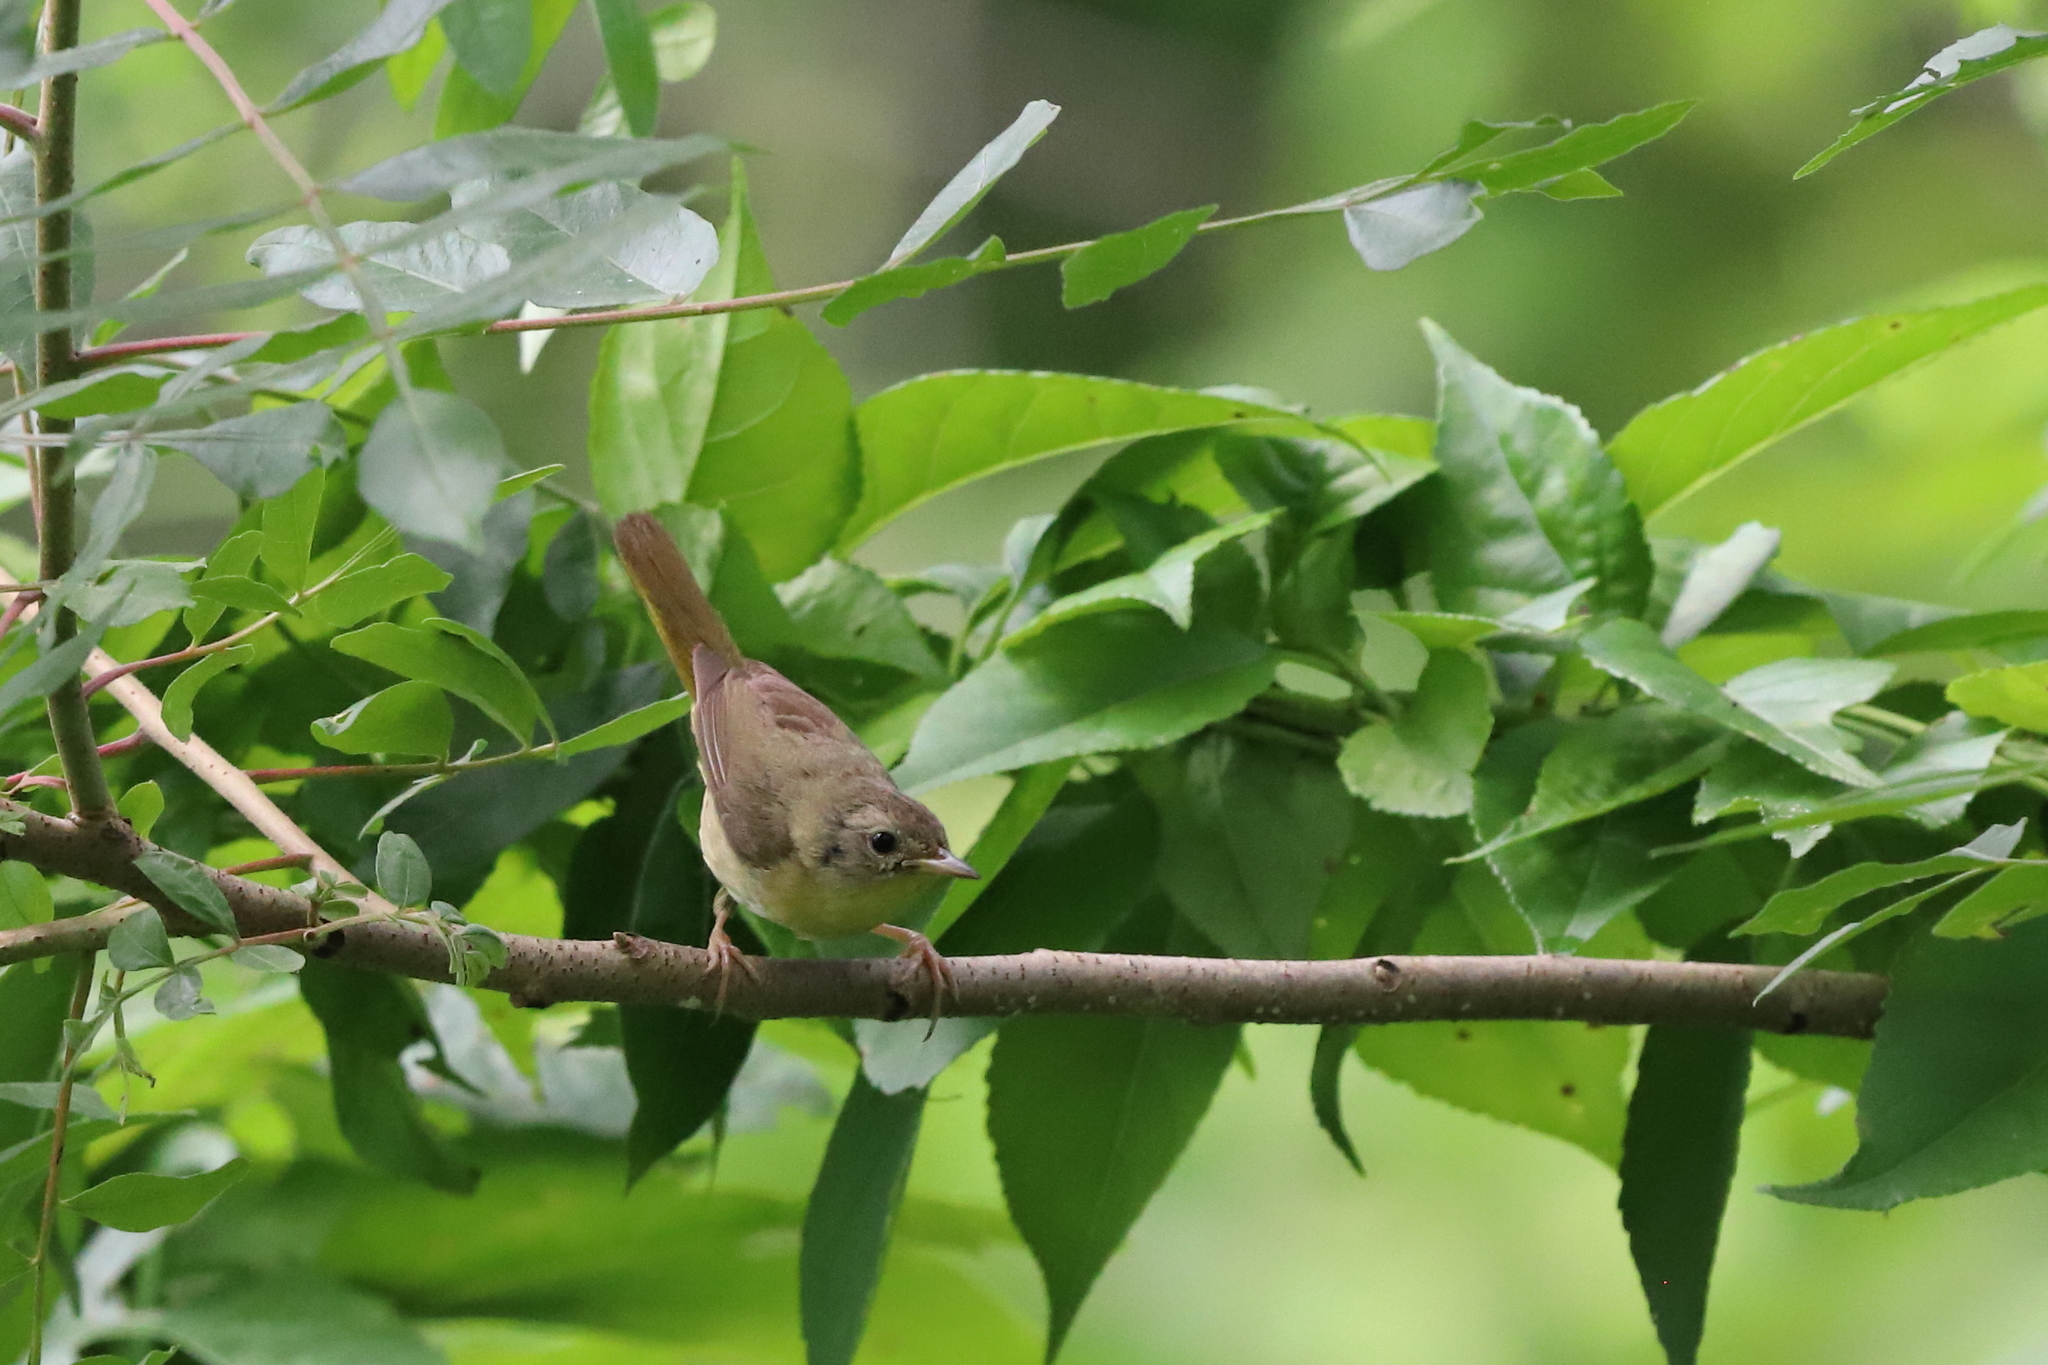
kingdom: Animalia
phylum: Chordata
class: Aves
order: Passeriformes
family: Parulidae
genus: Geothlypis
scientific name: Geothlypis trichas
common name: Common yellowthroat
